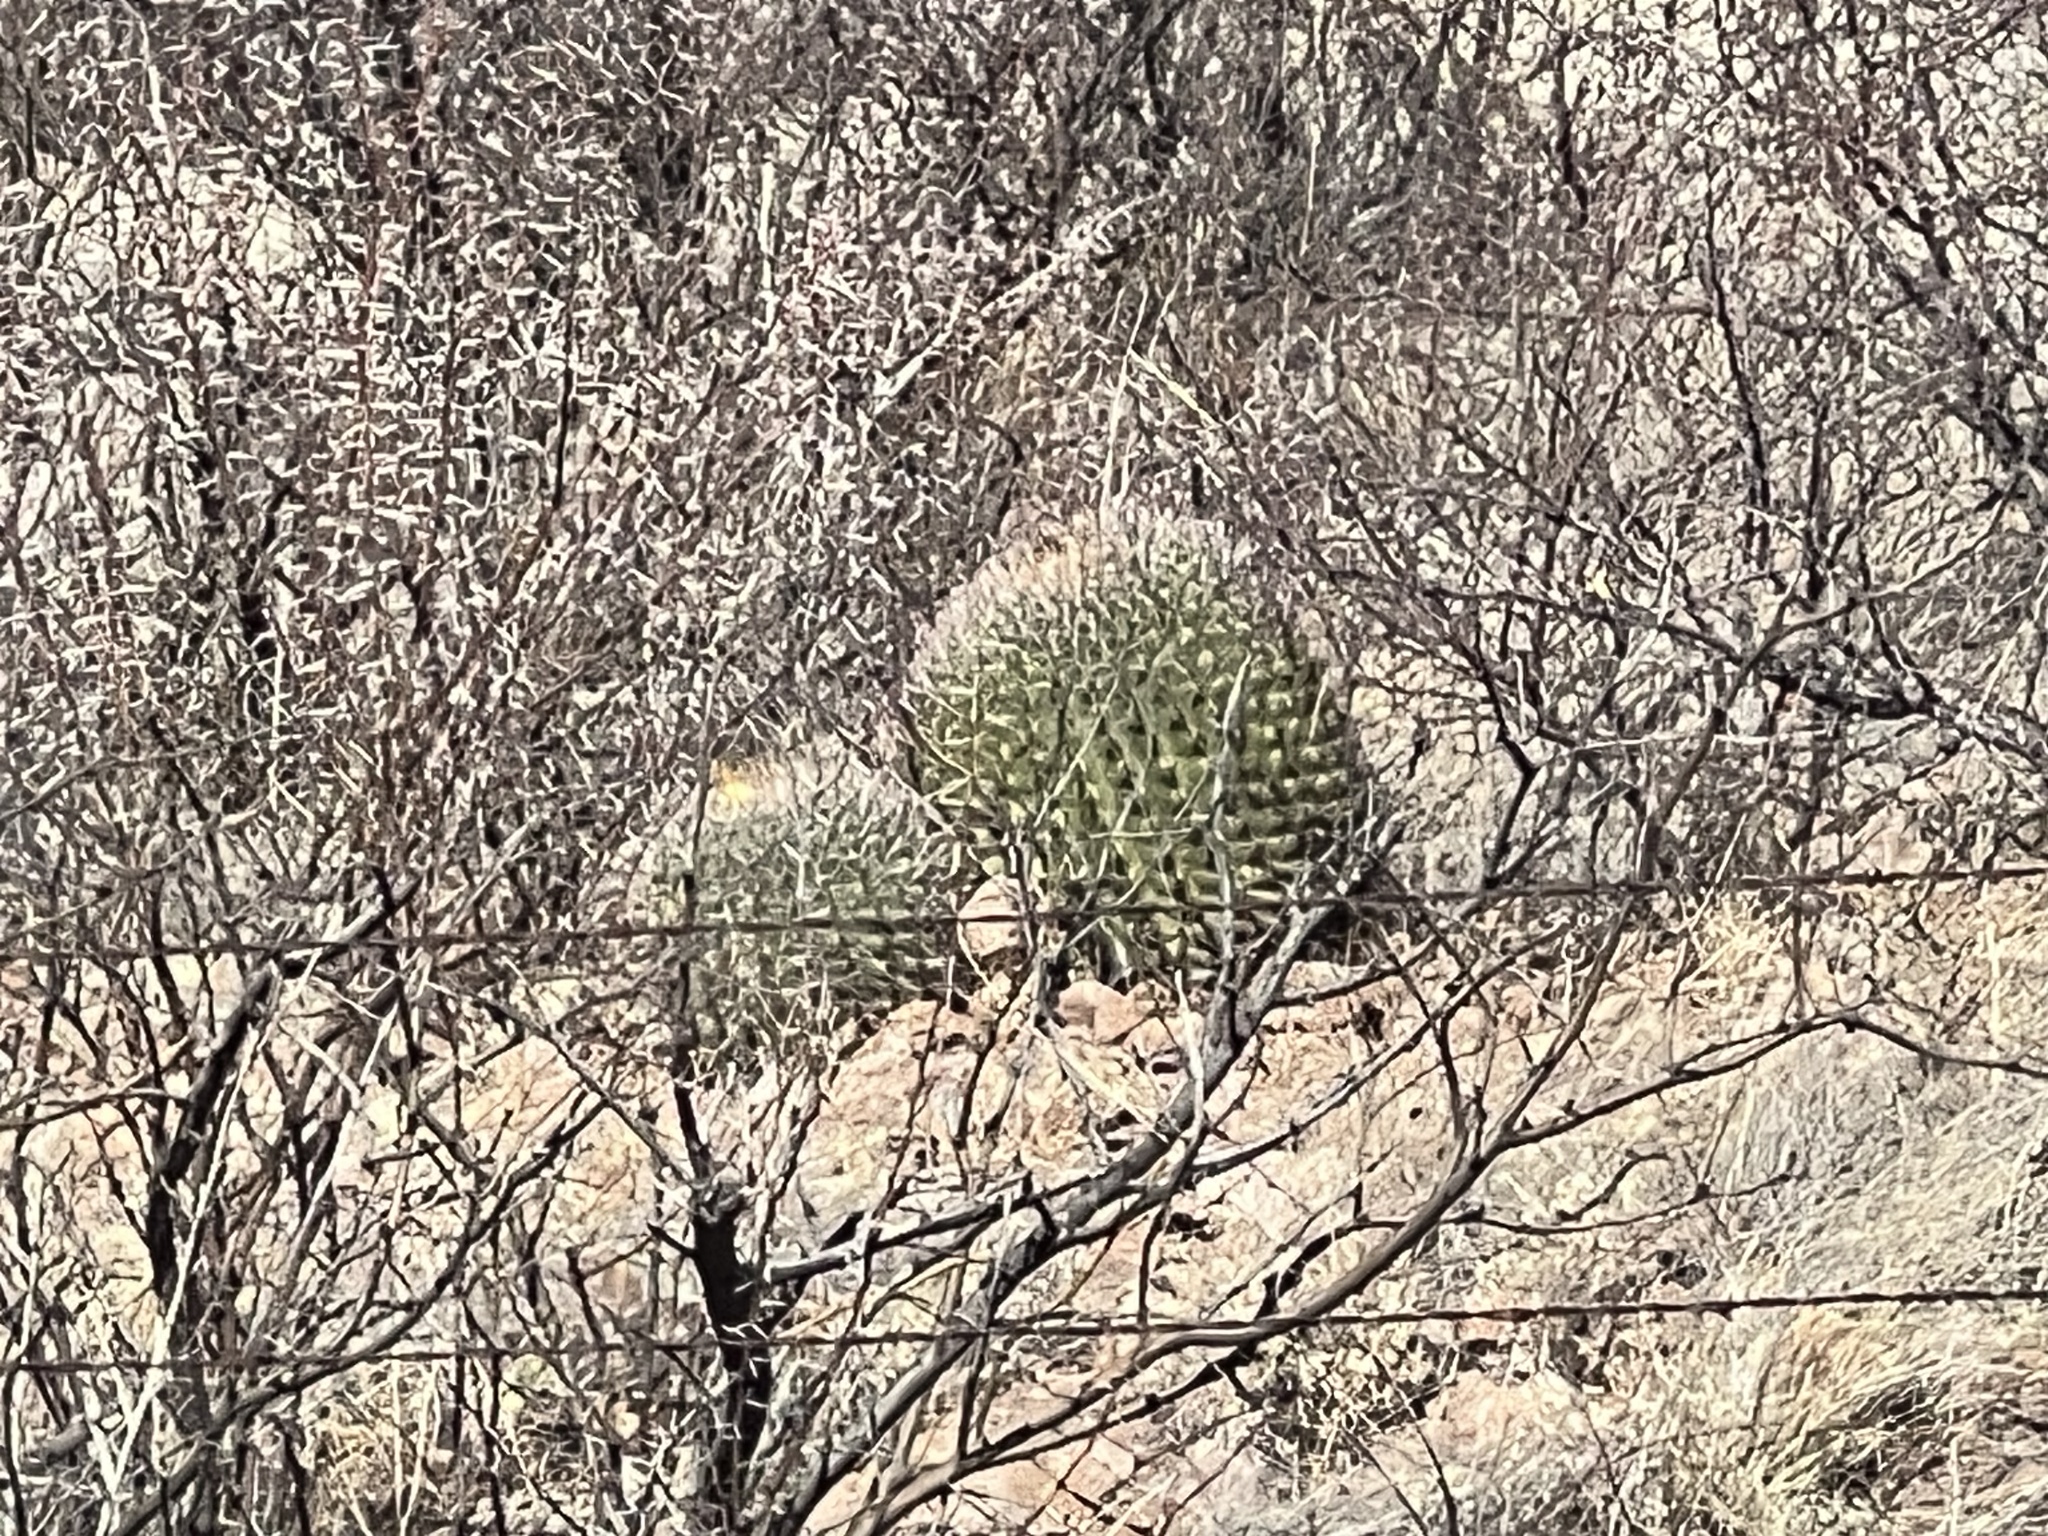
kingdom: Plantae
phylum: Tracheophyta
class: Magnoliopsida
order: Caryophyllales
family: Cactaceae
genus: Ferocactus
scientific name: Ferocactus wislizeni
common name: Candy barrel cactus
